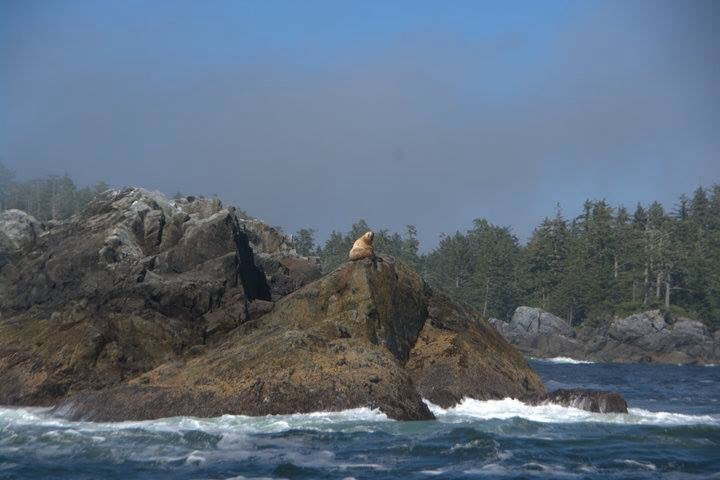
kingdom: Animalia
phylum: Chordata
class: Mammalia
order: Carnivora
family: Otariidae
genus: Eumetopias
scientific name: Eumetopias jubatus
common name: Steller sea lion
